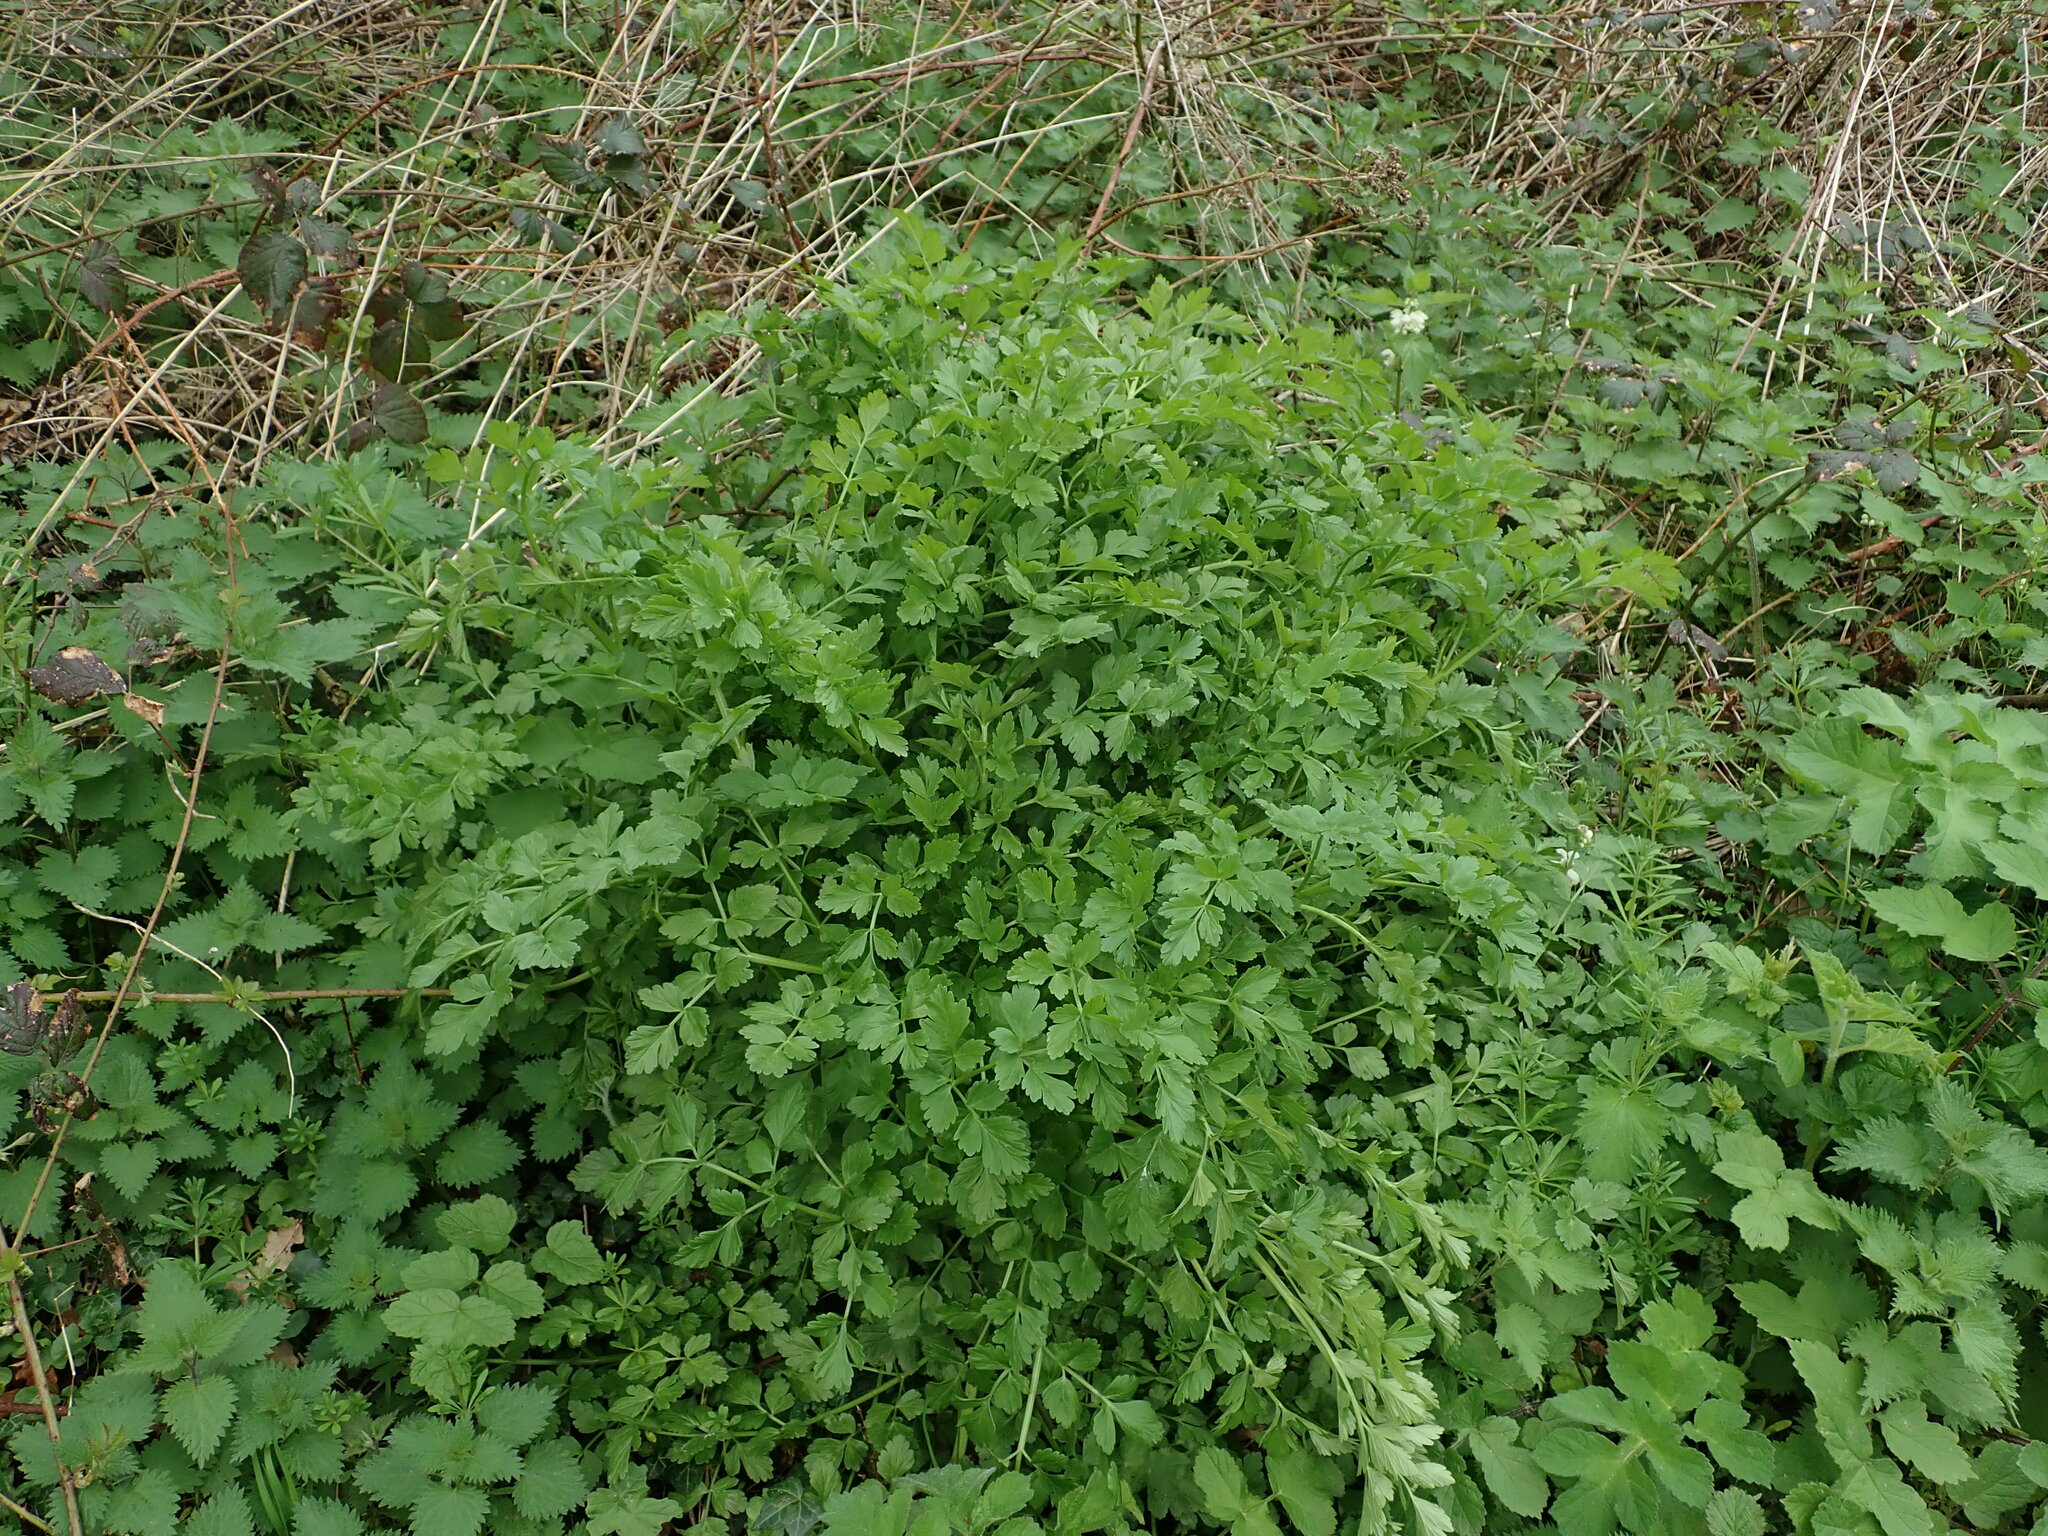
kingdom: Plantae
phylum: Tracheophyta
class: Magnoliopsida
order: Apiales
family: Apiaceae
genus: Oenanthe
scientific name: Oenanthe crocata
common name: Hemlock water-dropwort
